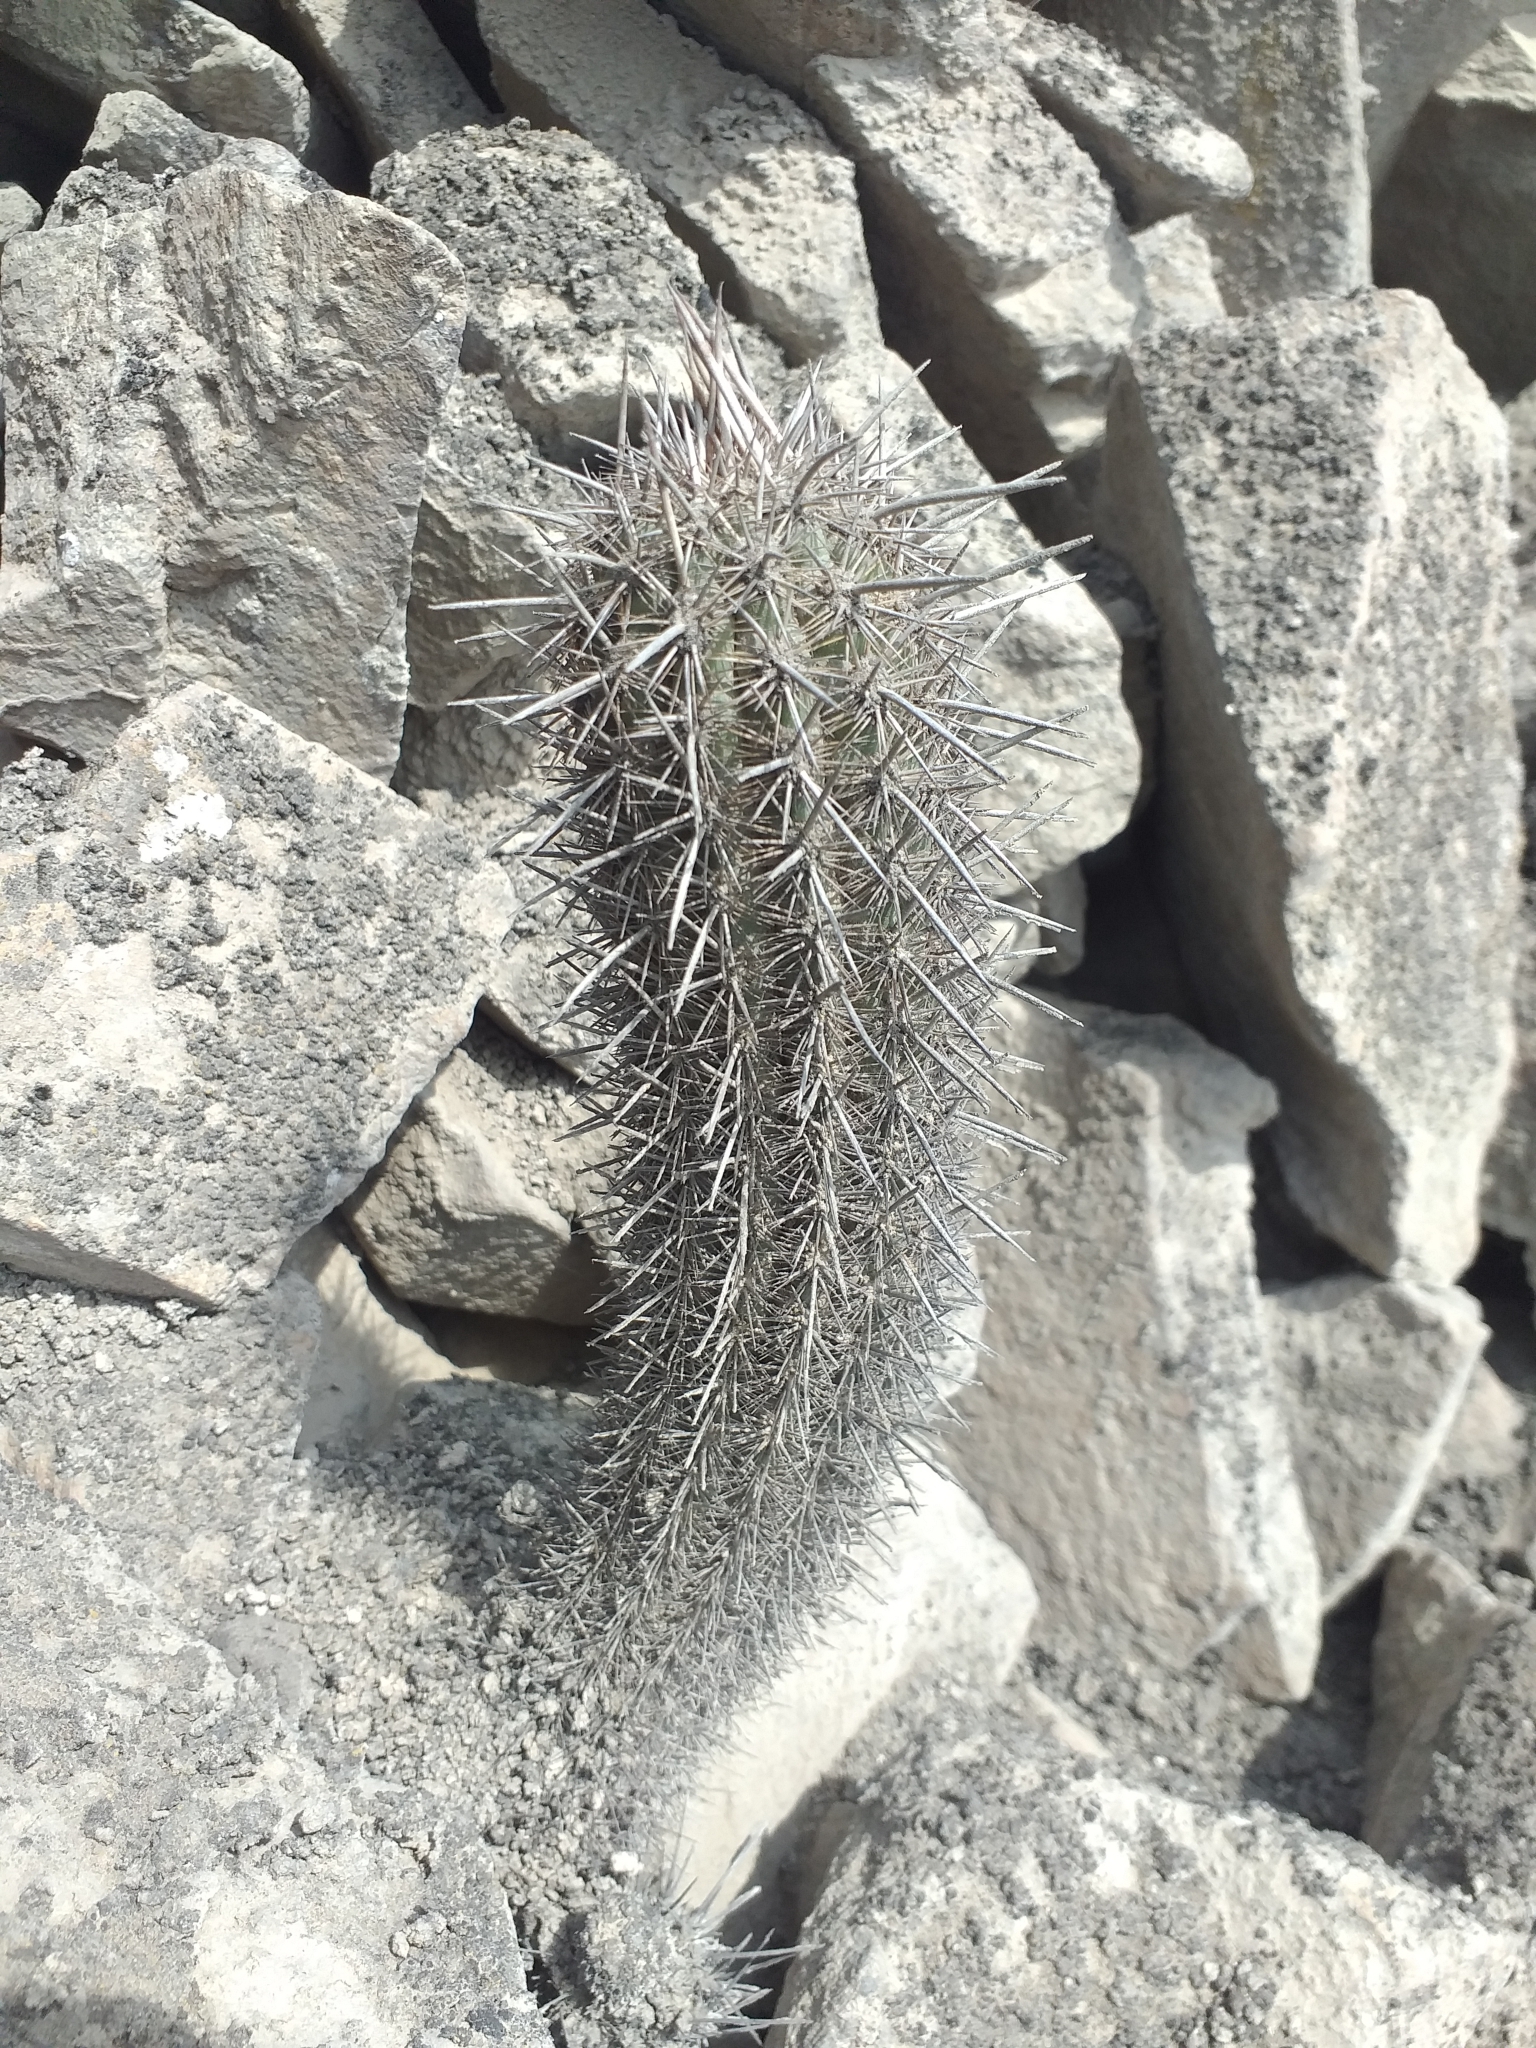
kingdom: Plantae
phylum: Tracheophyta
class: Magnoliopsida
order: Caryophyllales
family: Cactaceae
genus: Haageocereus
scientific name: Haageocereus acranthus
